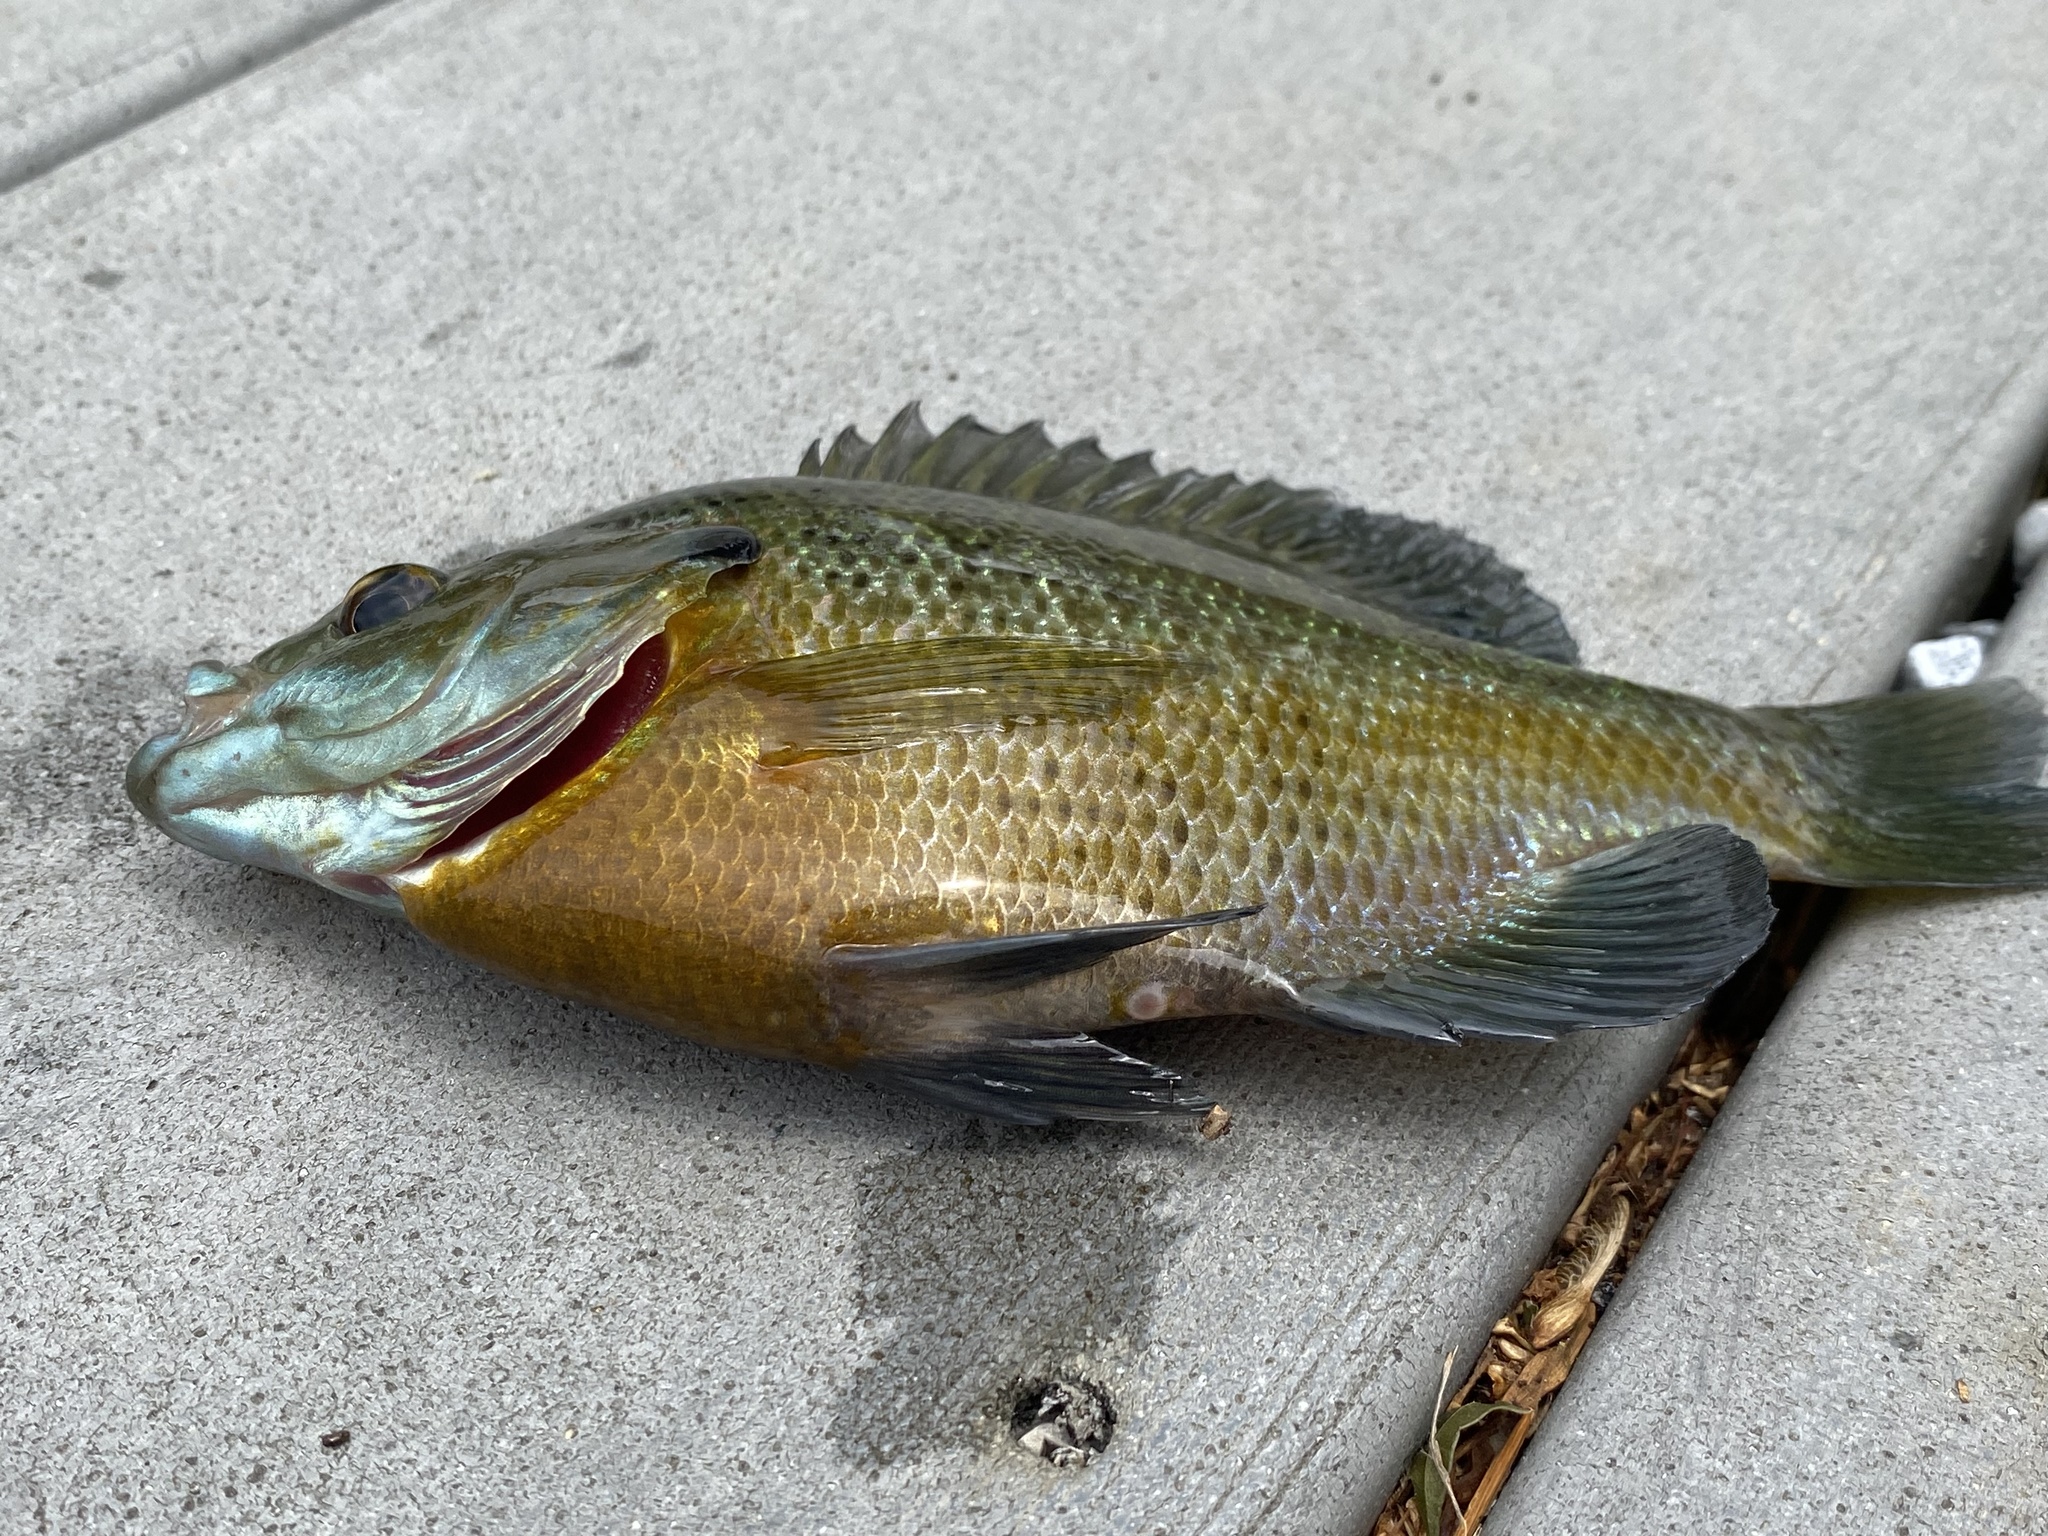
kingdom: Animalia
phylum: Chordata
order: Perciformes
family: Centrarchidae
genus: Lepomis
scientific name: Lepomis macrochirus
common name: Bluegill
